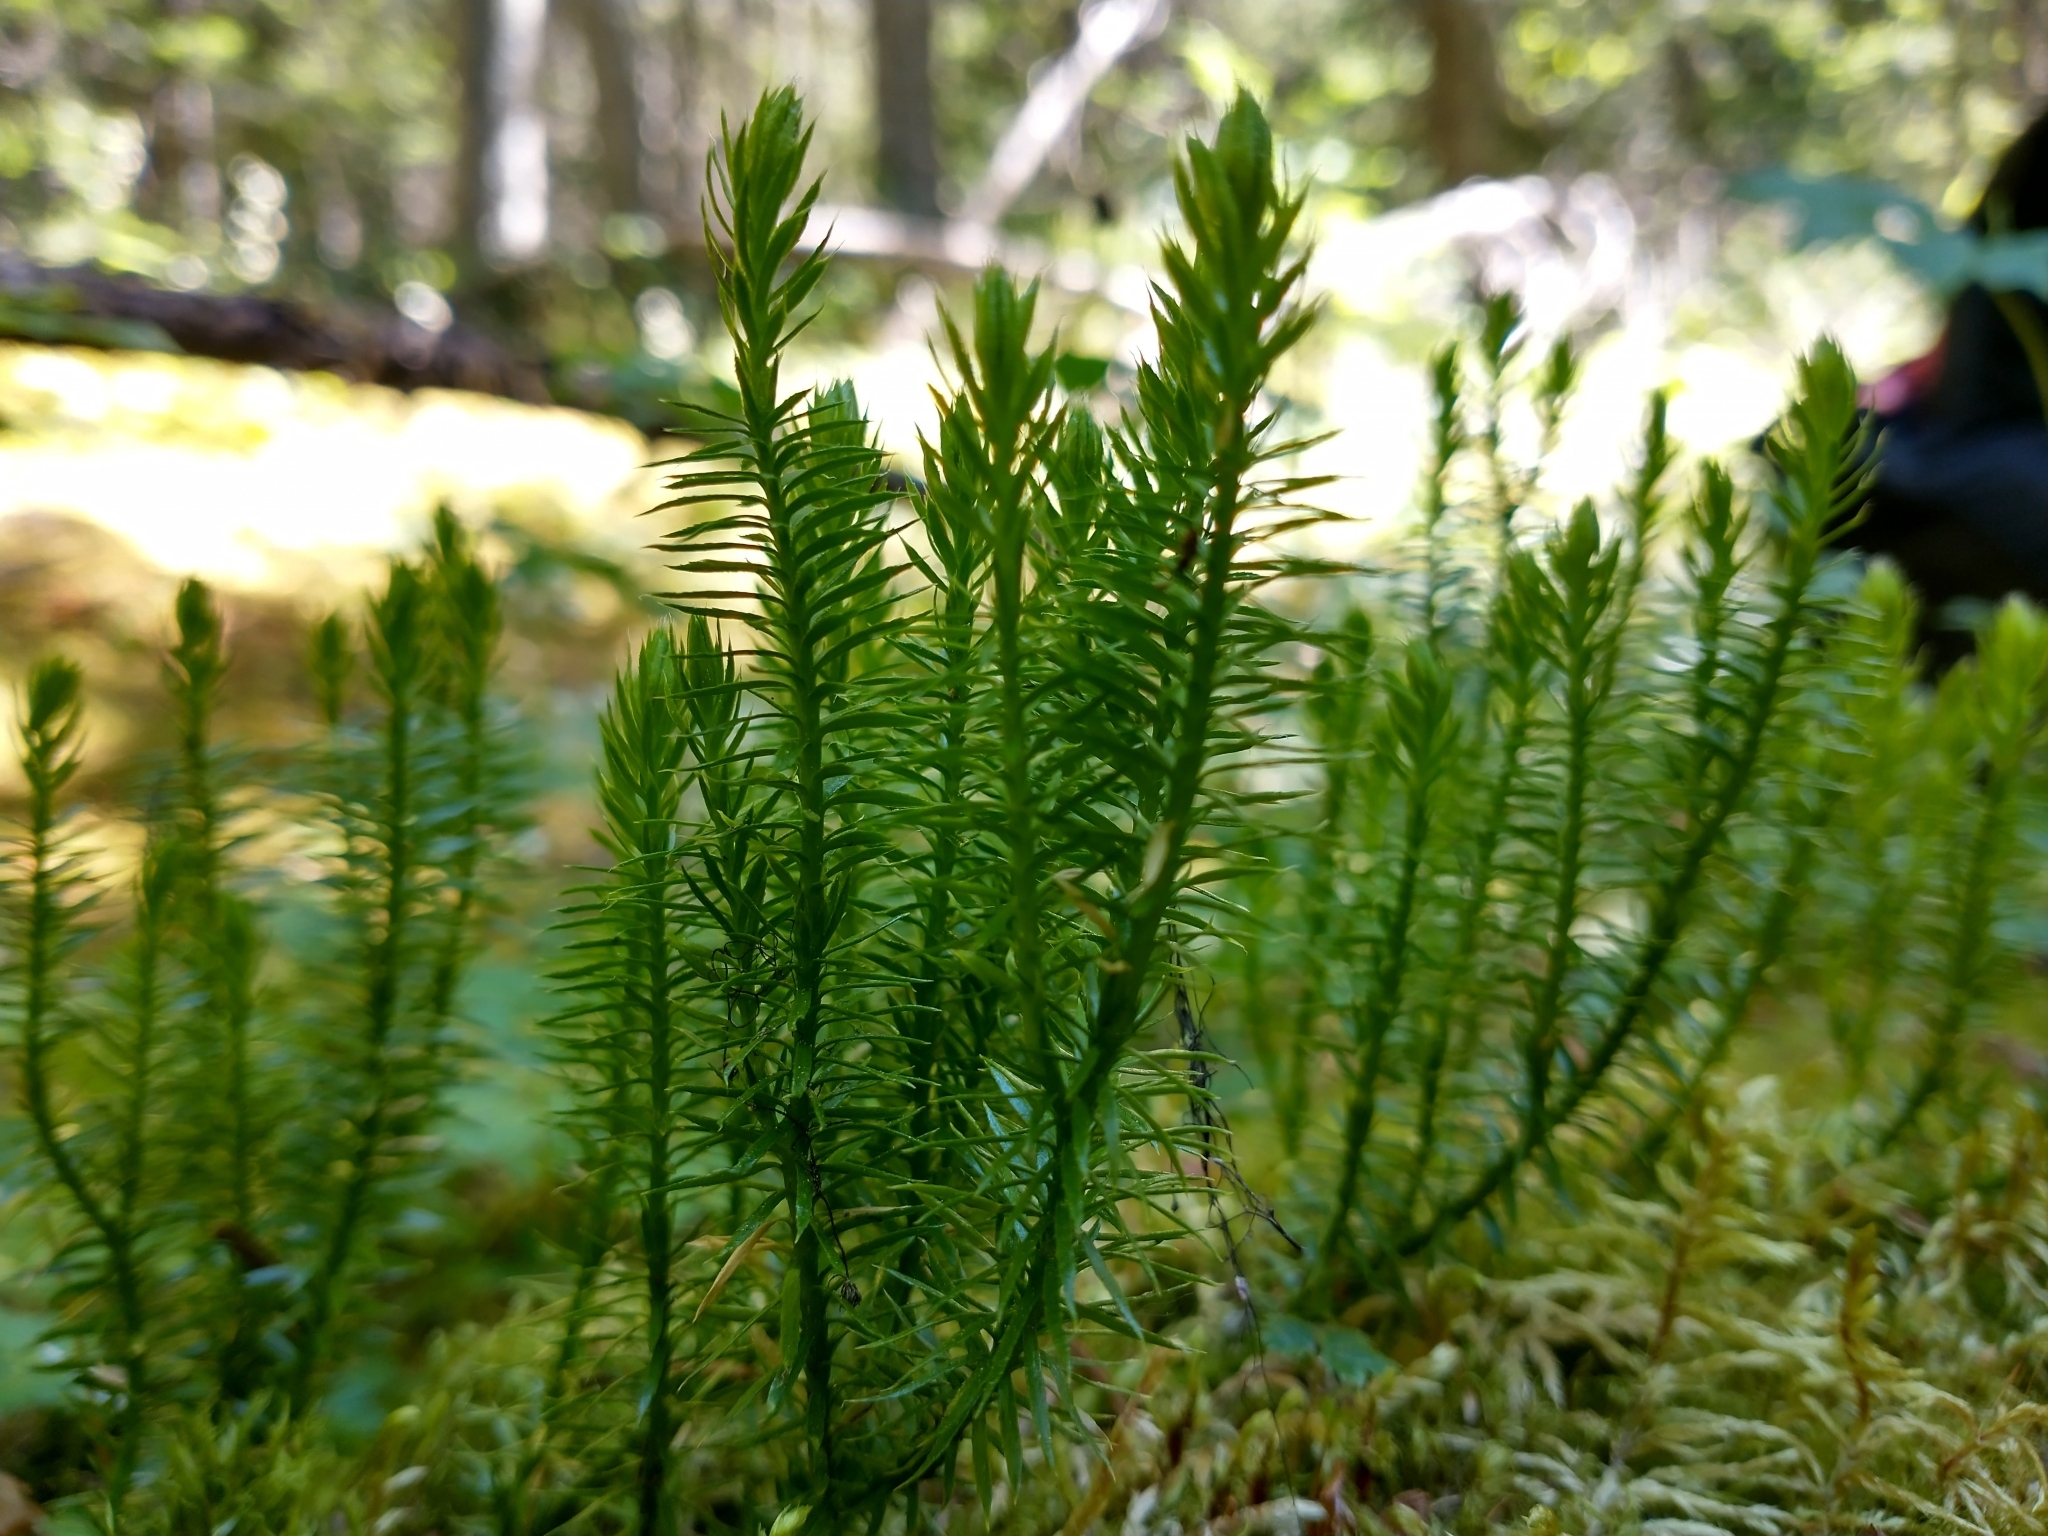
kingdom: Plantae
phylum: Tracheophyta
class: Lycopodiopsida
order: Lycopodiales
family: Lycopodiaceae
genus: Spinulum
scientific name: Spinulum annotinum
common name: Interrupted club-moss
